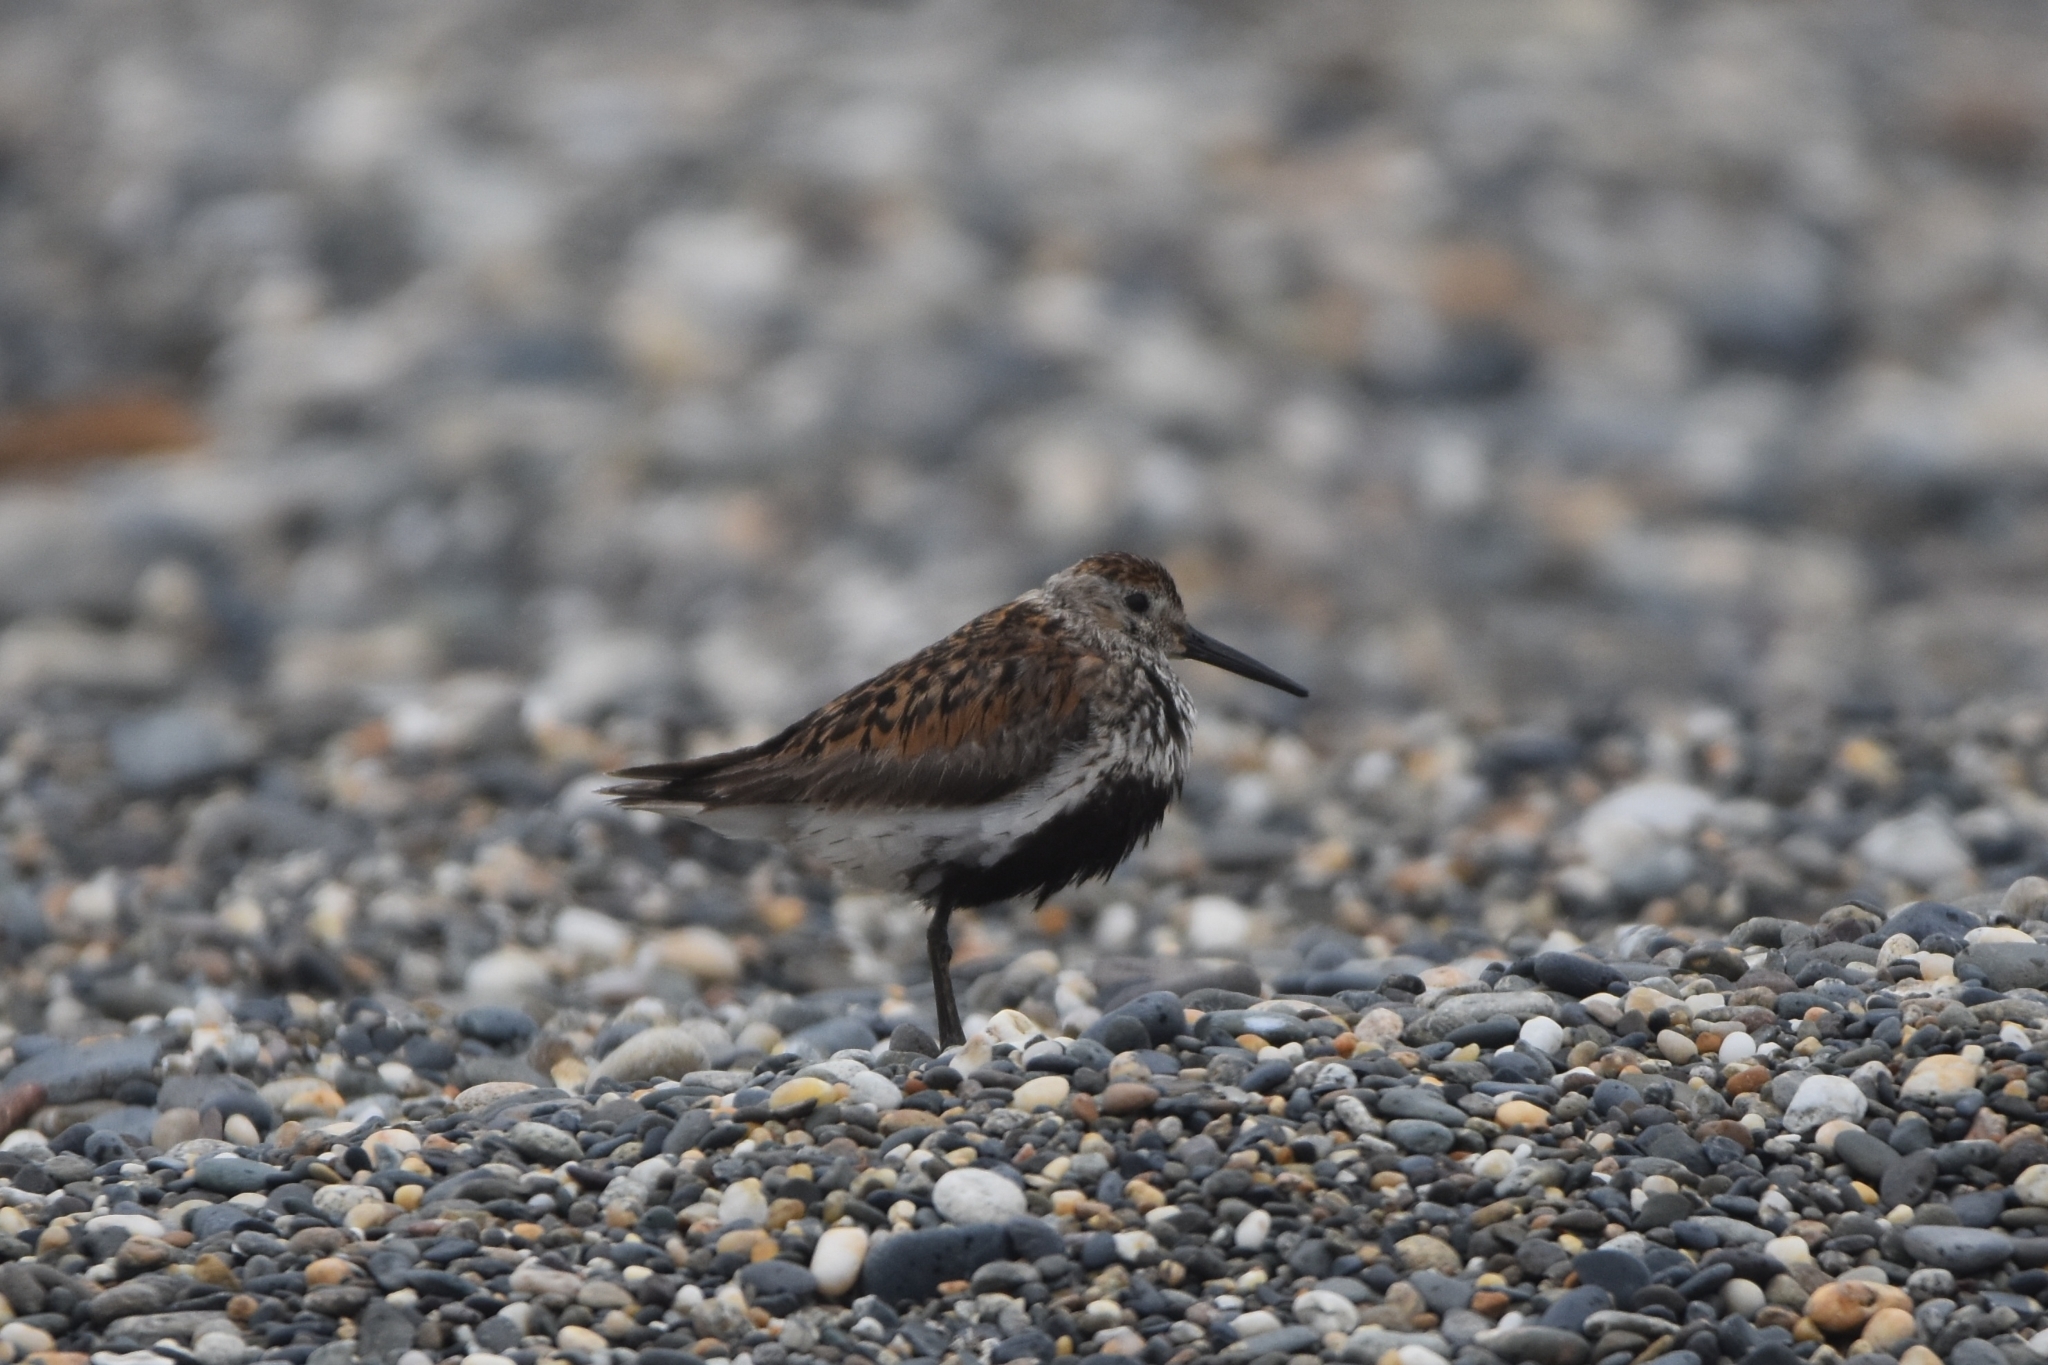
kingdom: Animalia
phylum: Chordata
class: Aves
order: Charadriiformes
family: Scolopacidae
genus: Calidris
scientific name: Calidris alpina
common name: Dunlin
